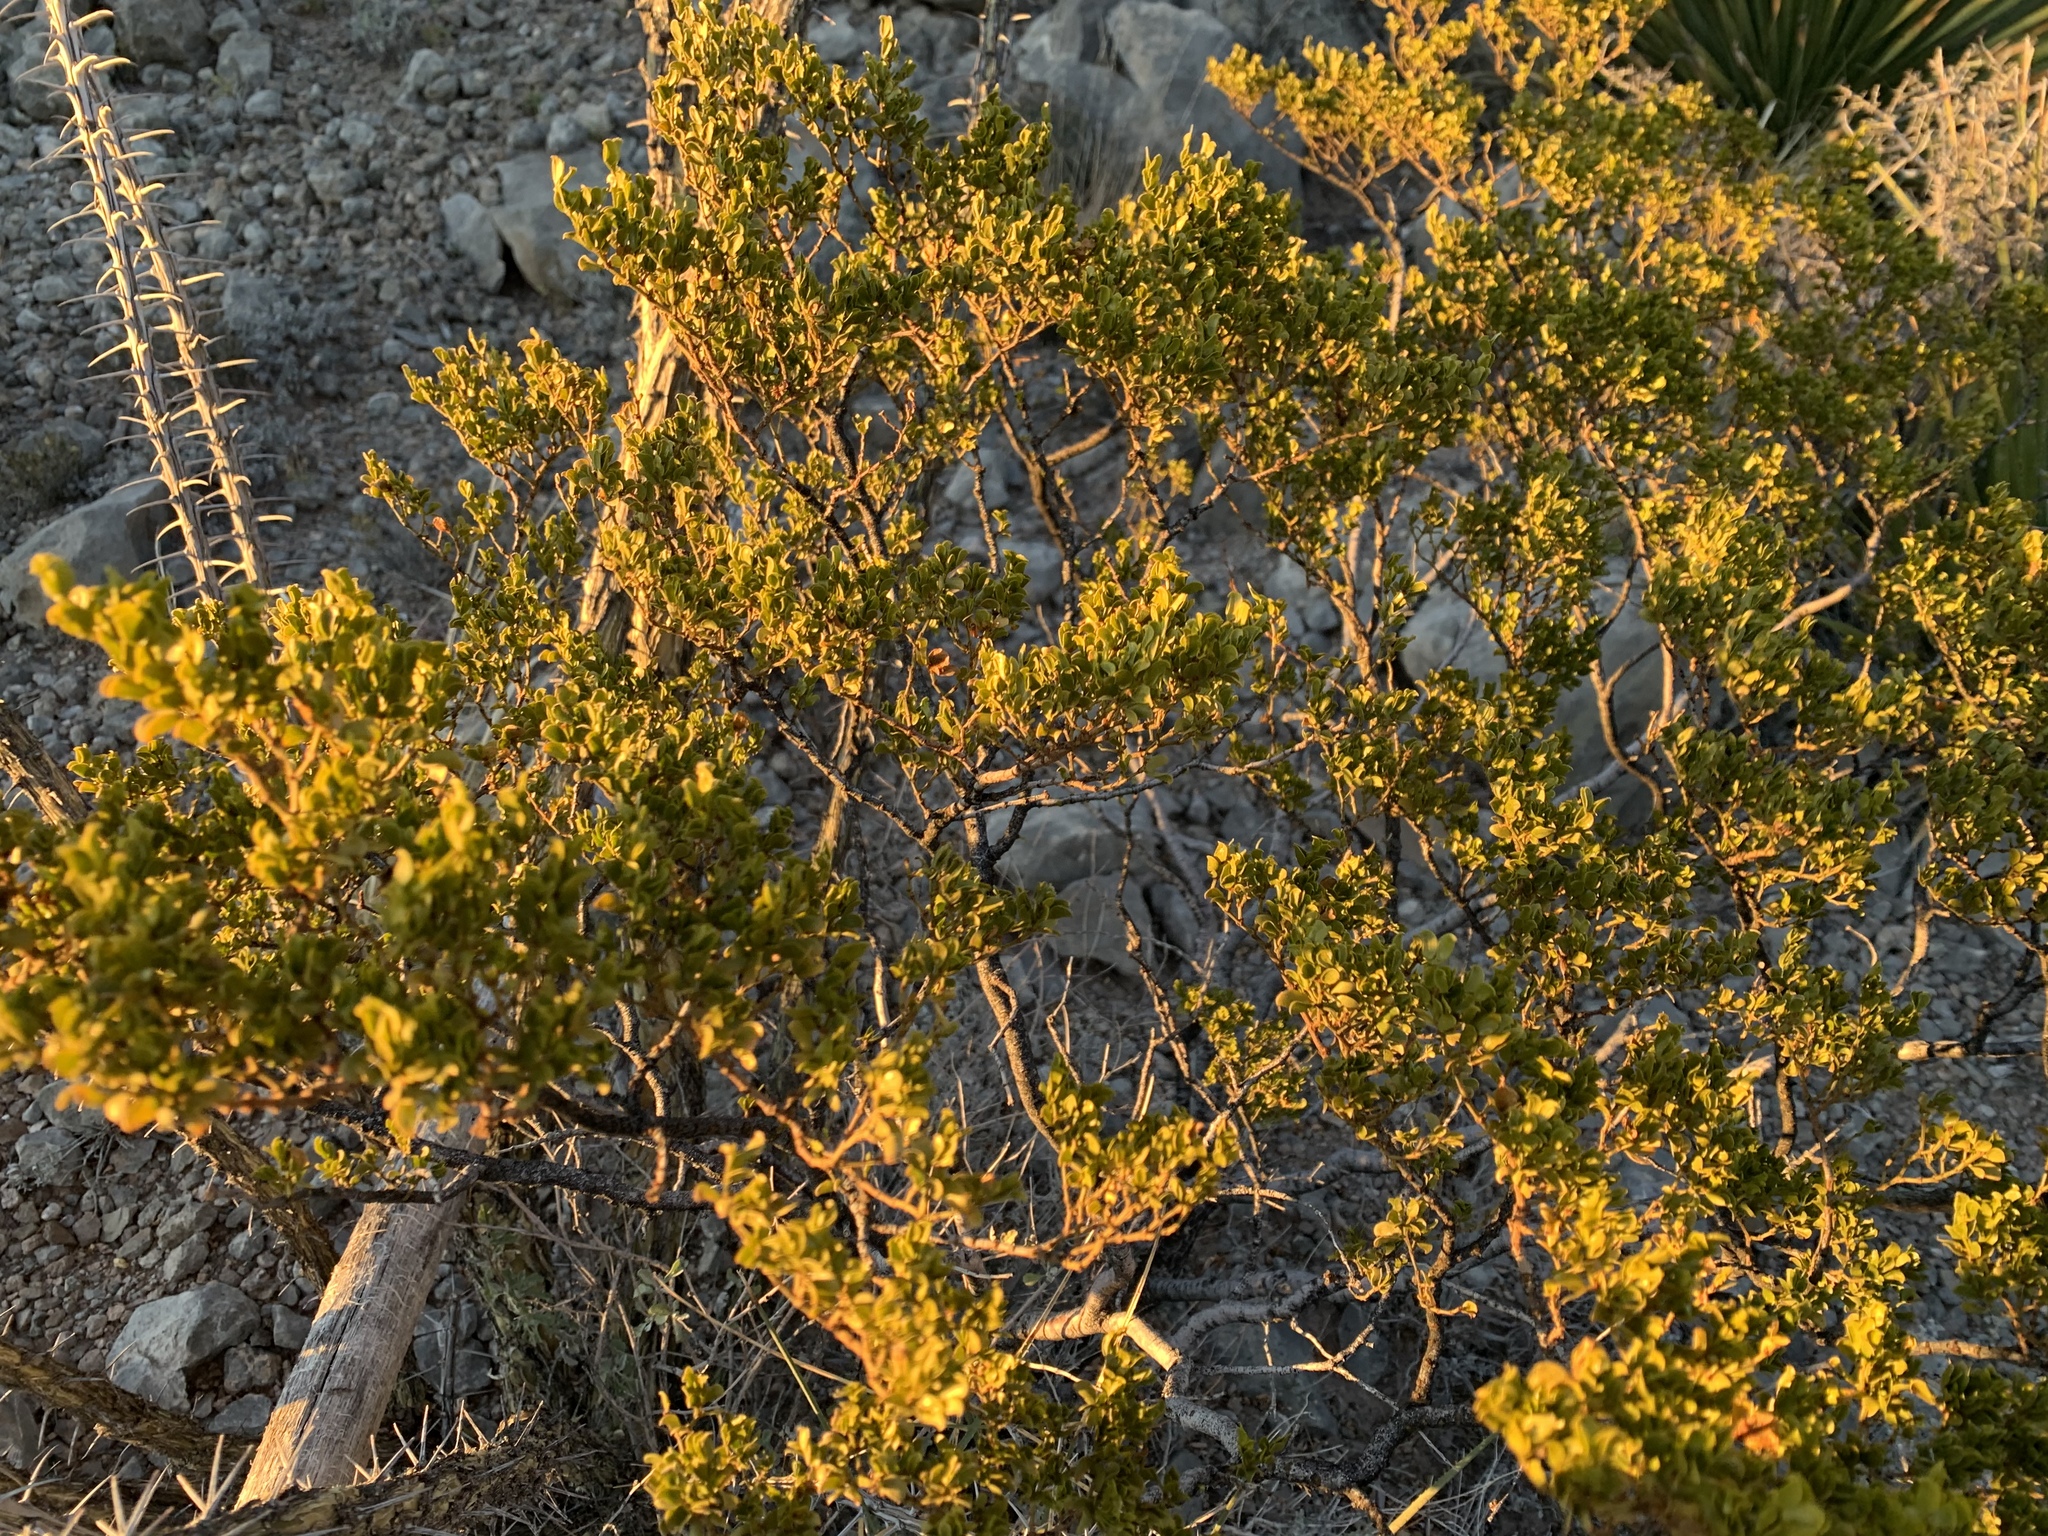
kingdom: Plantae
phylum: Tracheophyta
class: Magnoliopsida
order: Zygophyllales
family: Zygophyllaceae
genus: Larrea
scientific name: Larrea tridentata
